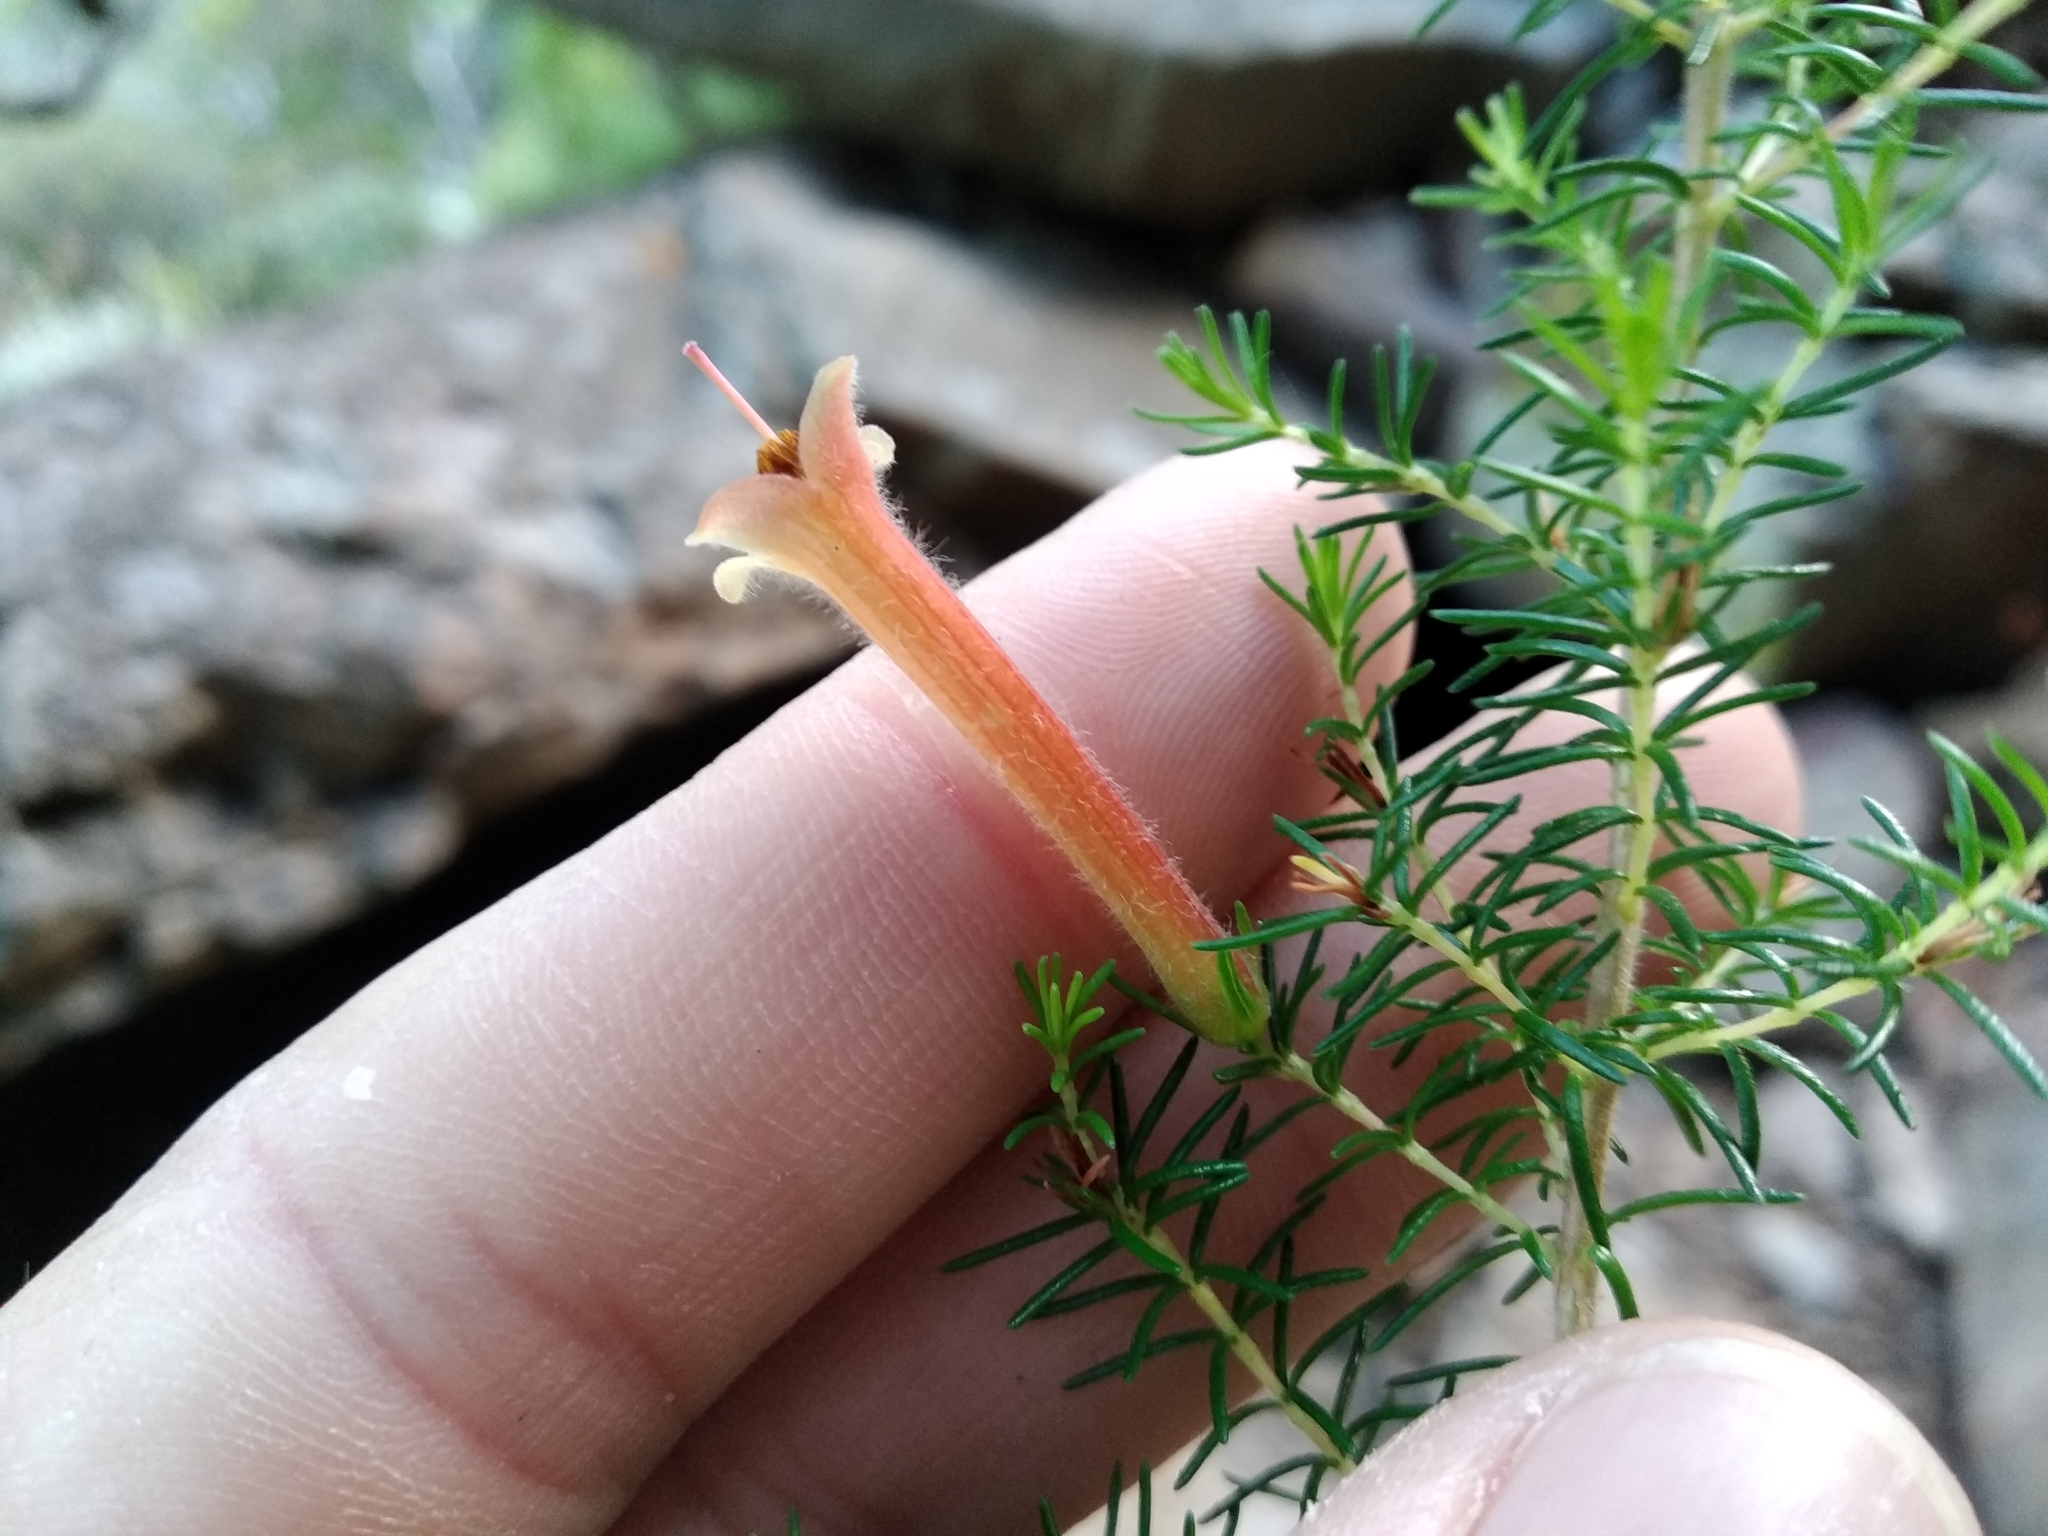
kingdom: Plantae
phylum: Tracheophyta
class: Magnoliopsida
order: Ericales
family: Ericaceae
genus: Erica
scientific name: Erica curviflora
